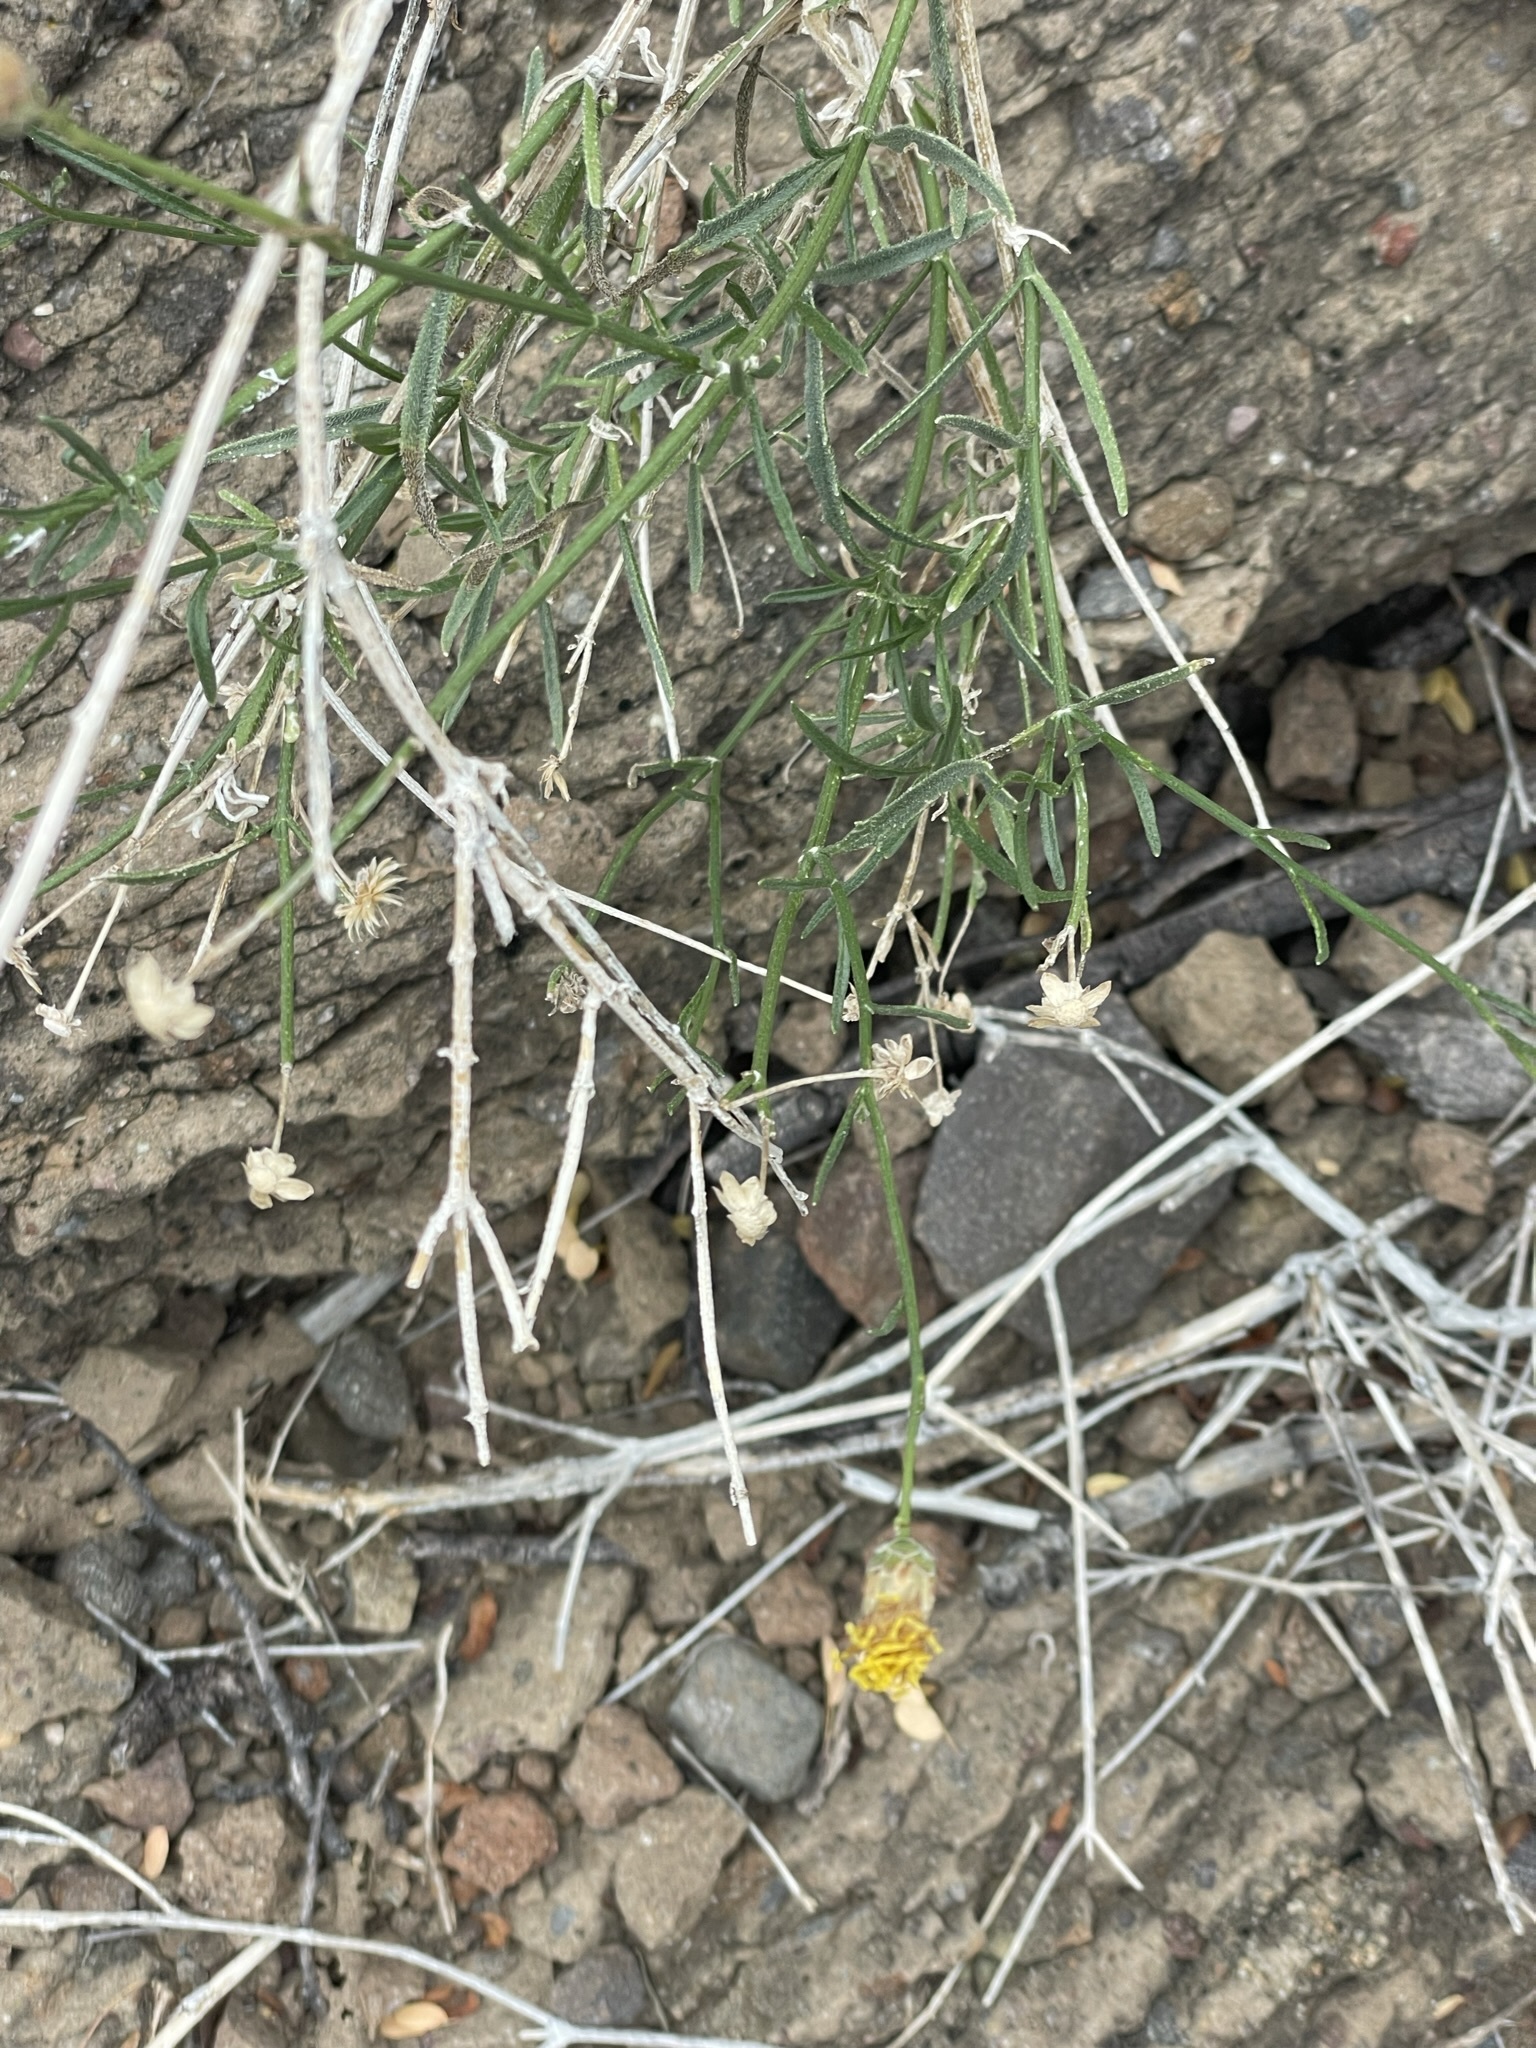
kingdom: Plantae
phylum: Tracheophyta
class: Magnoliopsida
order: Asterales
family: Asteraceae
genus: Bebbia
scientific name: Bebbia juncea
